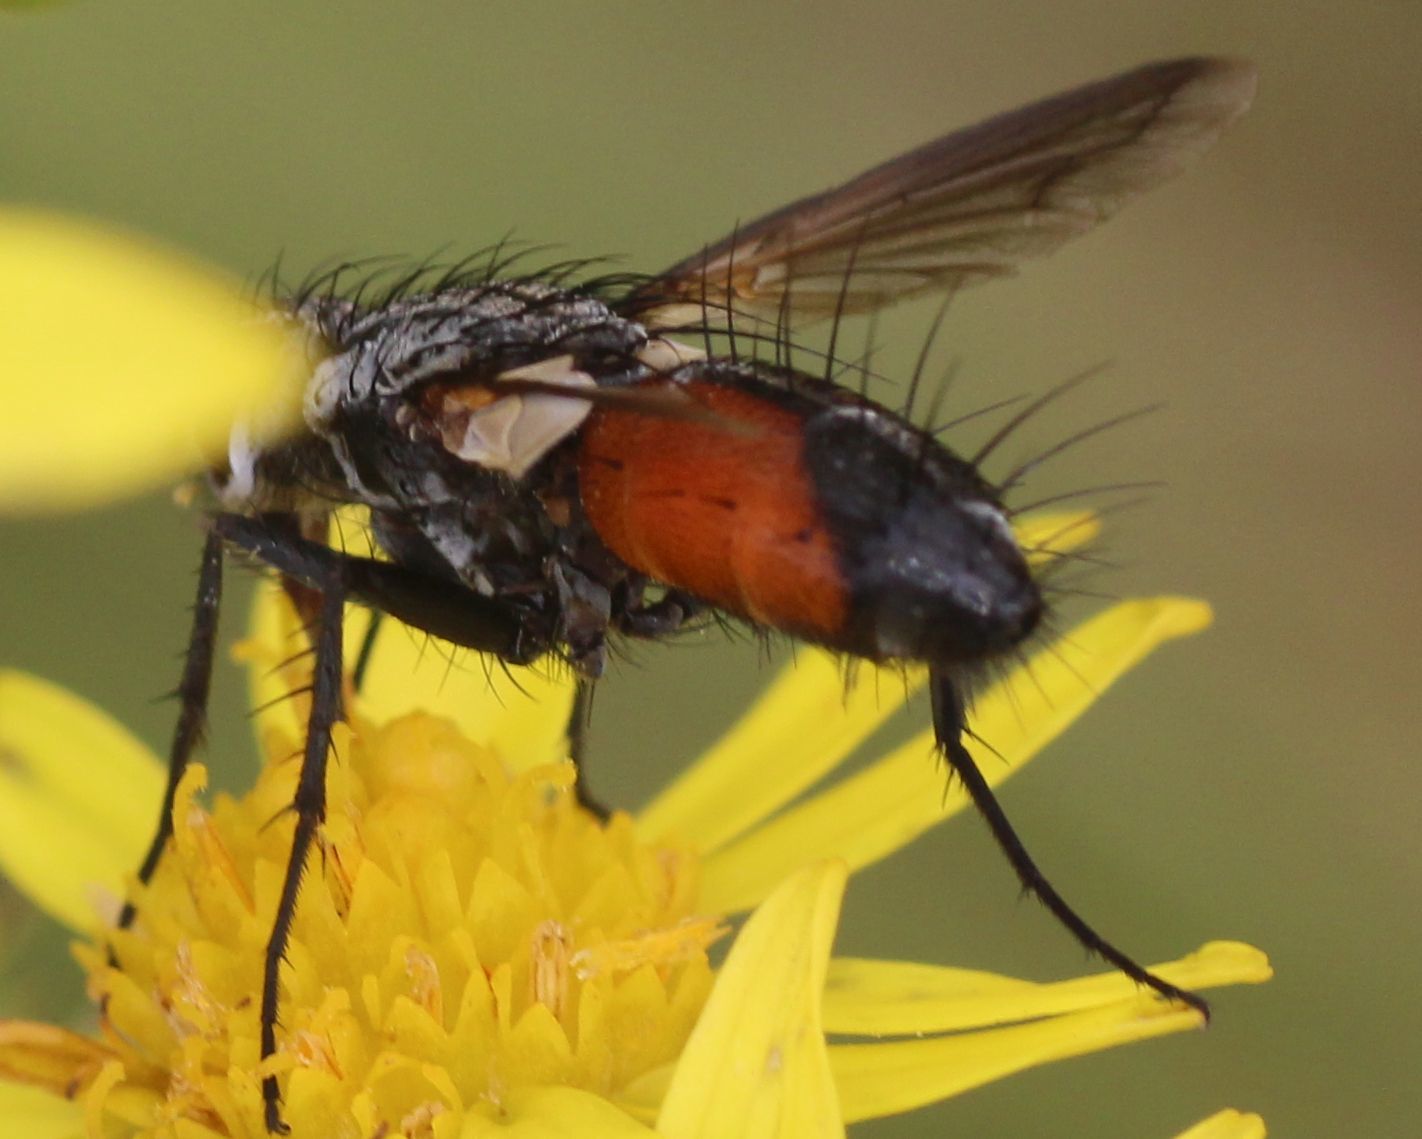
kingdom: Animalia
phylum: Arthropoda
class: Insecta
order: Diptera
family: Tachinidae
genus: Eriothrix
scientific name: Eriothrix rufomaculatus
